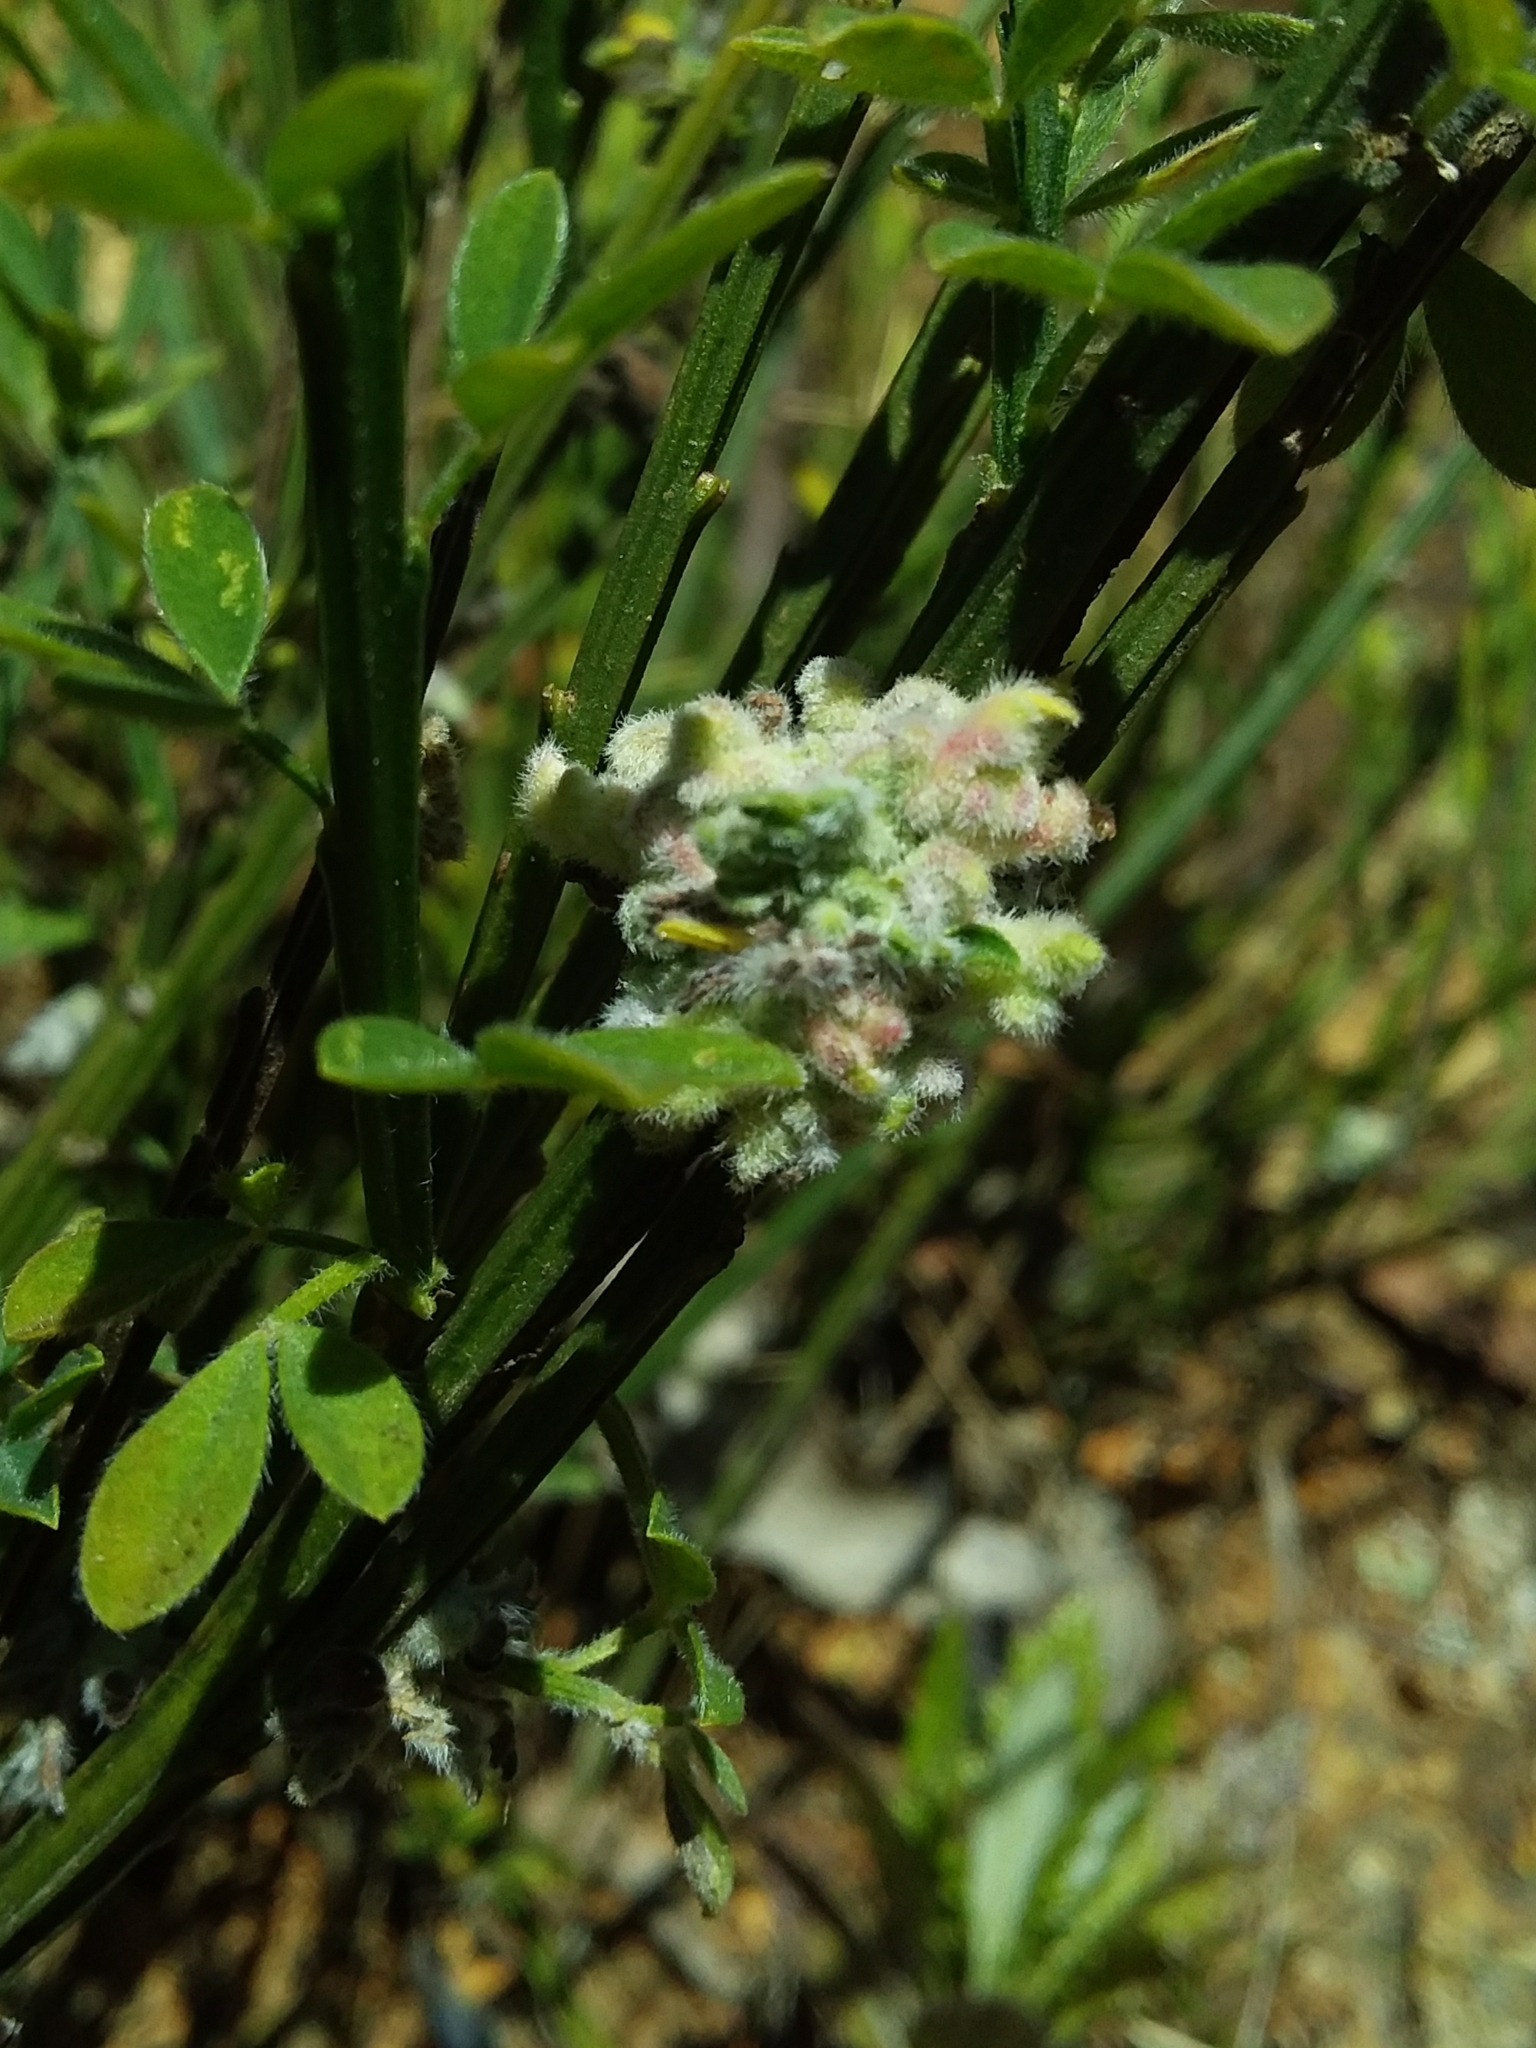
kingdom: Animalia
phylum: Arthropoda
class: Arachnida
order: Trombidiformes
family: Eriophyidae
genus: Aceria
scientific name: Aceria genistae
